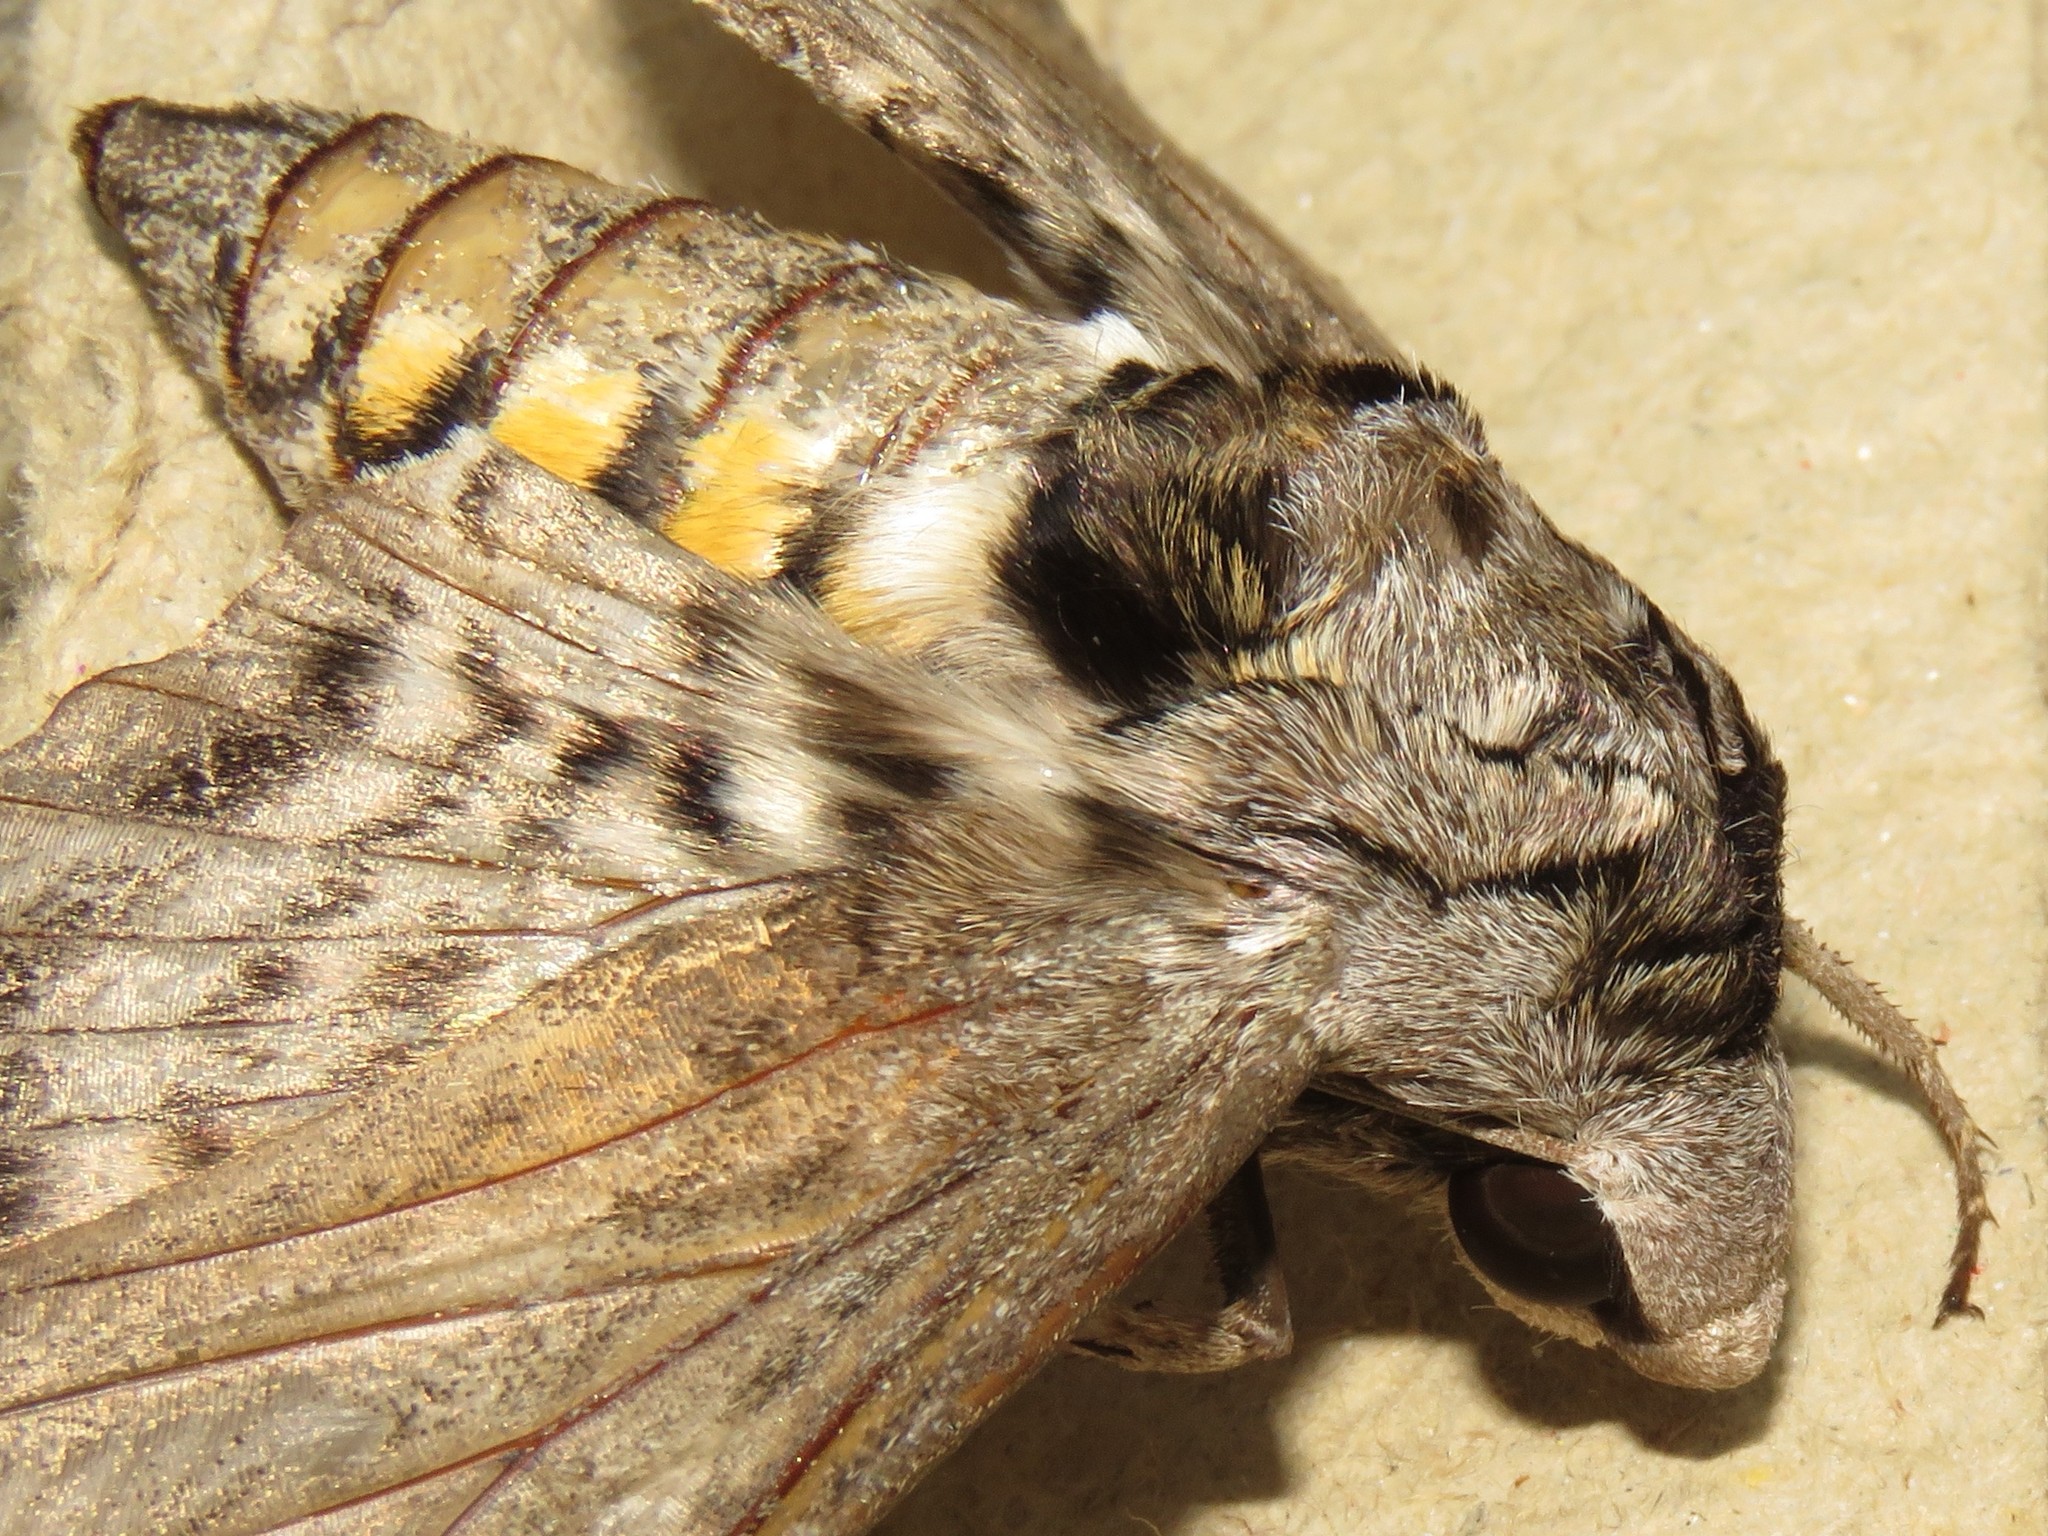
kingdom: Animalia
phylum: Arthropoda
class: Insecta
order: Lepidoptera
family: Sphingidae
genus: Manduca
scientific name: Manduca quinquemaculatus
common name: Five-spotted hawk-moth
